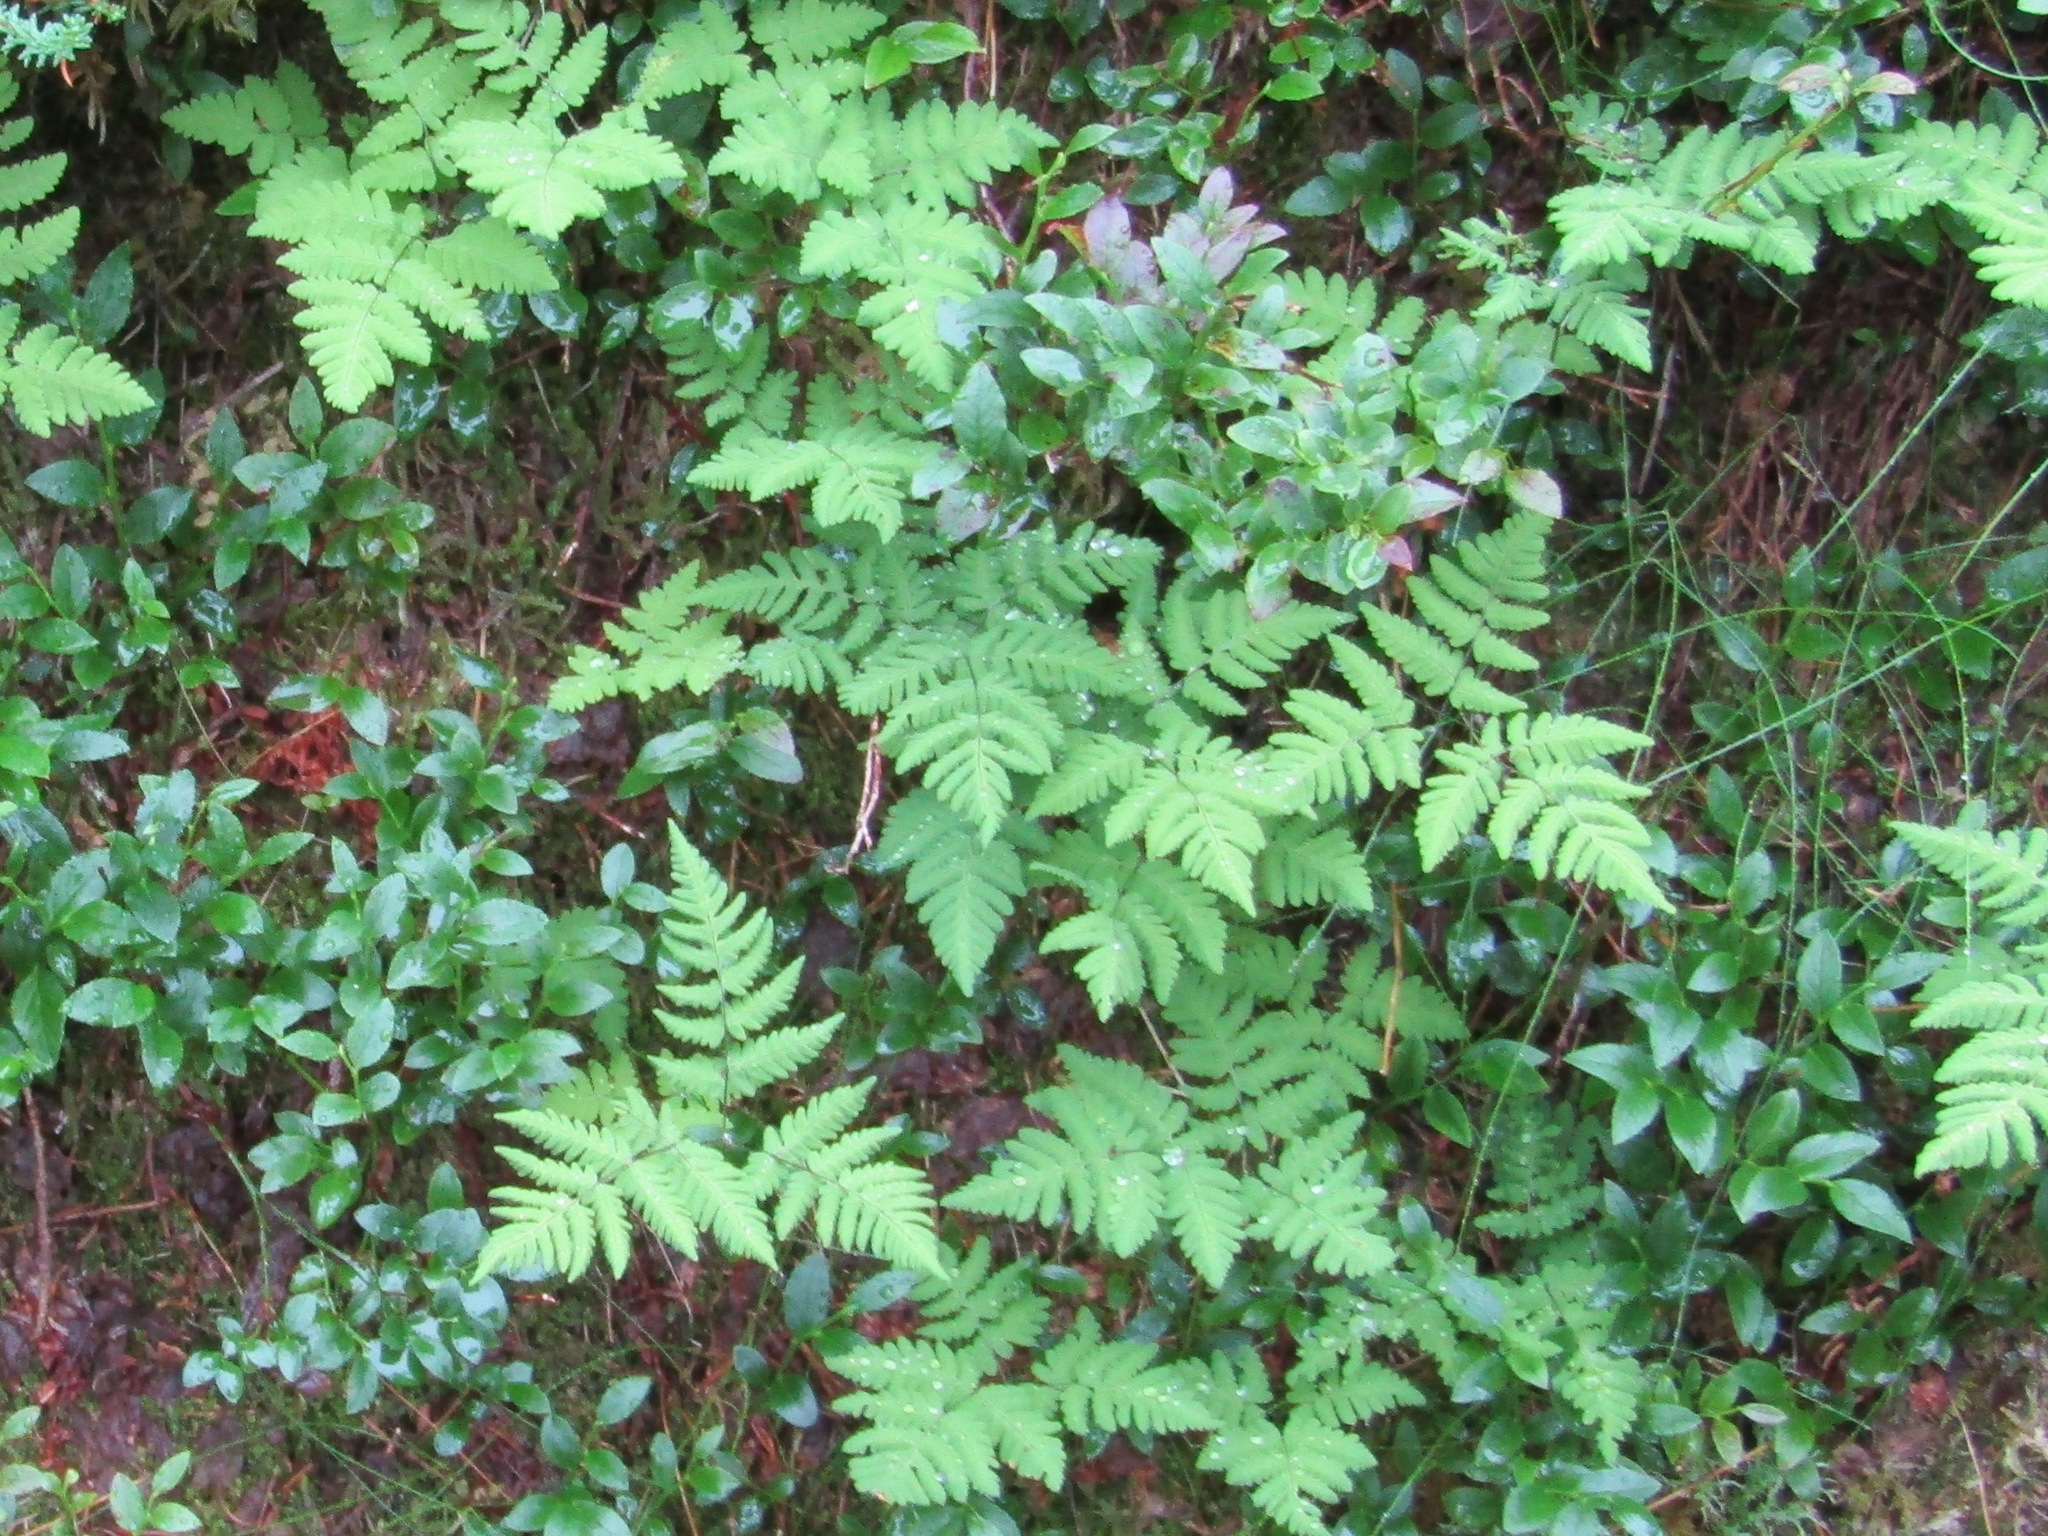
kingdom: Plantae
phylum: Tracheophyta
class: Polypodiopsida
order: Polypodiales
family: Cystopteridaceae
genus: Gymnocarpium
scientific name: Gymnocarpium dryopteris
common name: Oak fern
